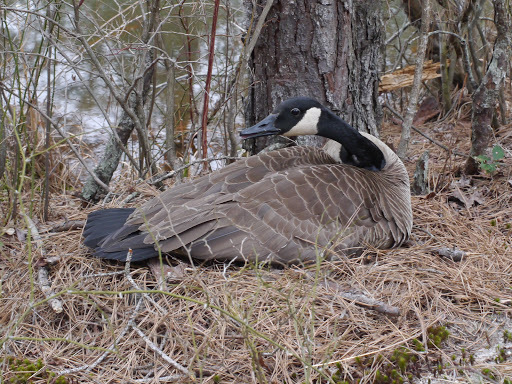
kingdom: Animalia
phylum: Chordata
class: Aves
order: Anseriformes
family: Anatidae
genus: Branta
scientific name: Branta canadensis
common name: Canada goose
